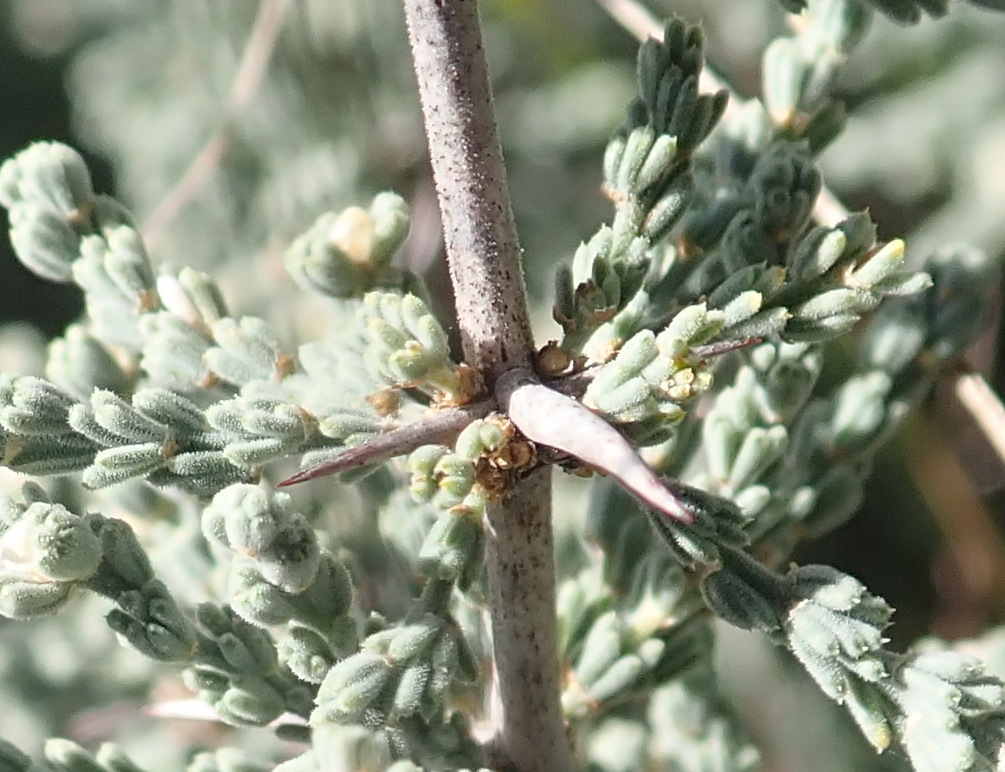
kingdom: Plantae
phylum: Tracheophyta
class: Liliopsida
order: Asparagales
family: Asparagaceae
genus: Asparagus
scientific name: Asparagus capensis
